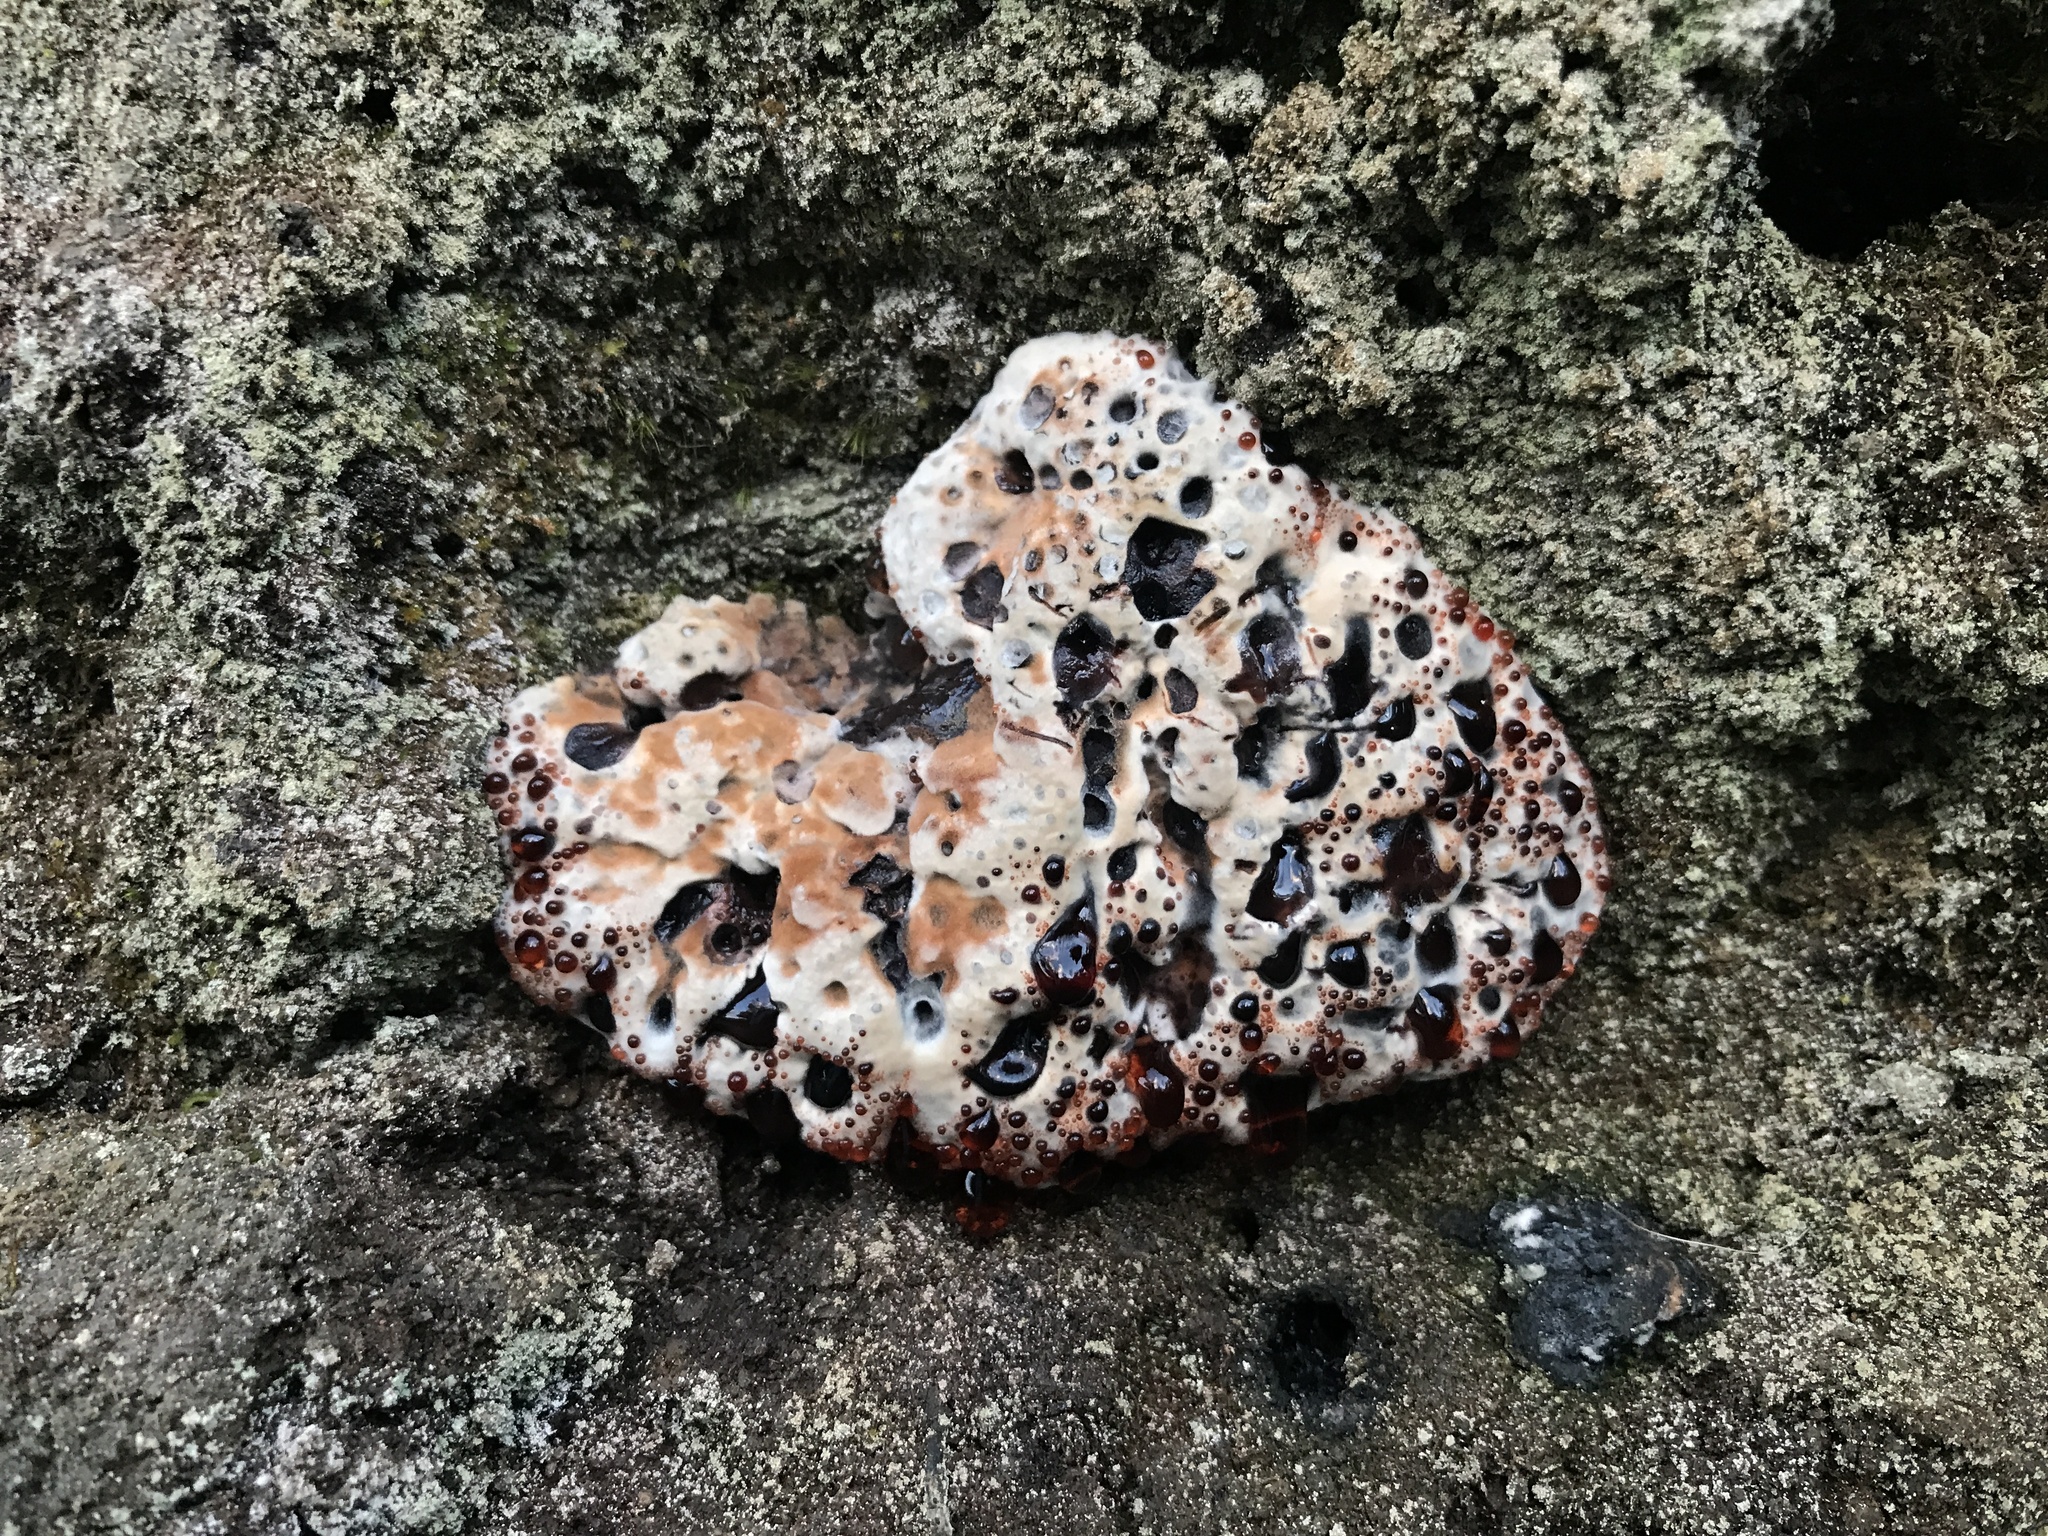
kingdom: Fungi
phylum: Basidiomycota
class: Agaricomycetes
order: Thelephorales
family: Bankeraceae
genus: Hydnellum
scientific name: Hydnellum peckii
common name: Devil's tooth
